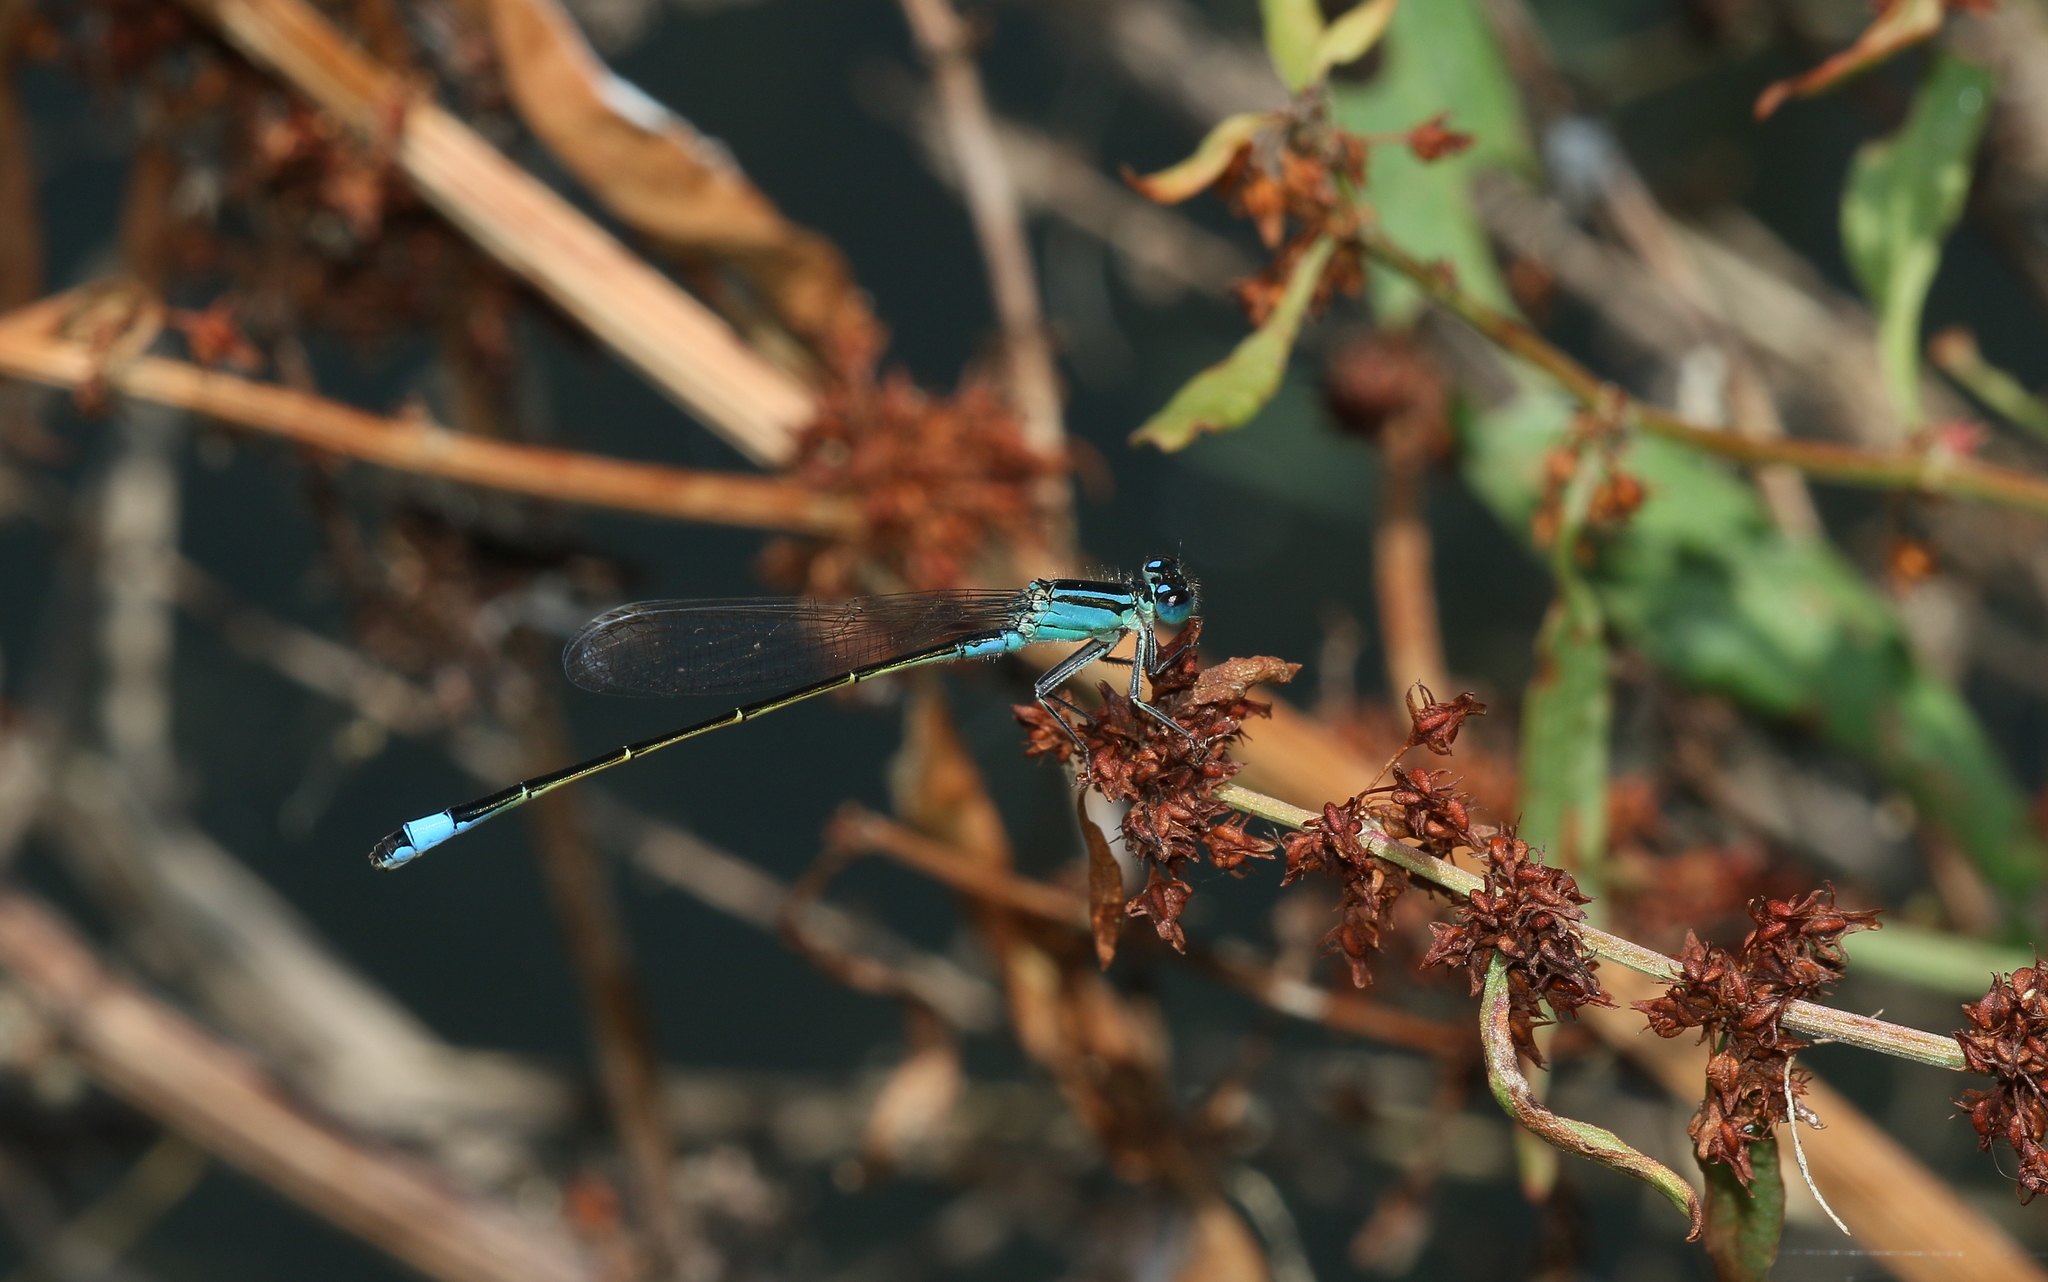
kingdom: Animalia
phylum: Arthropoda
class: Insecta
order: Odonata
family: Coenagrionidae
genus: Ischnura
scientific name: Ischnura elegans
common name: Blue-tailed damselfly
